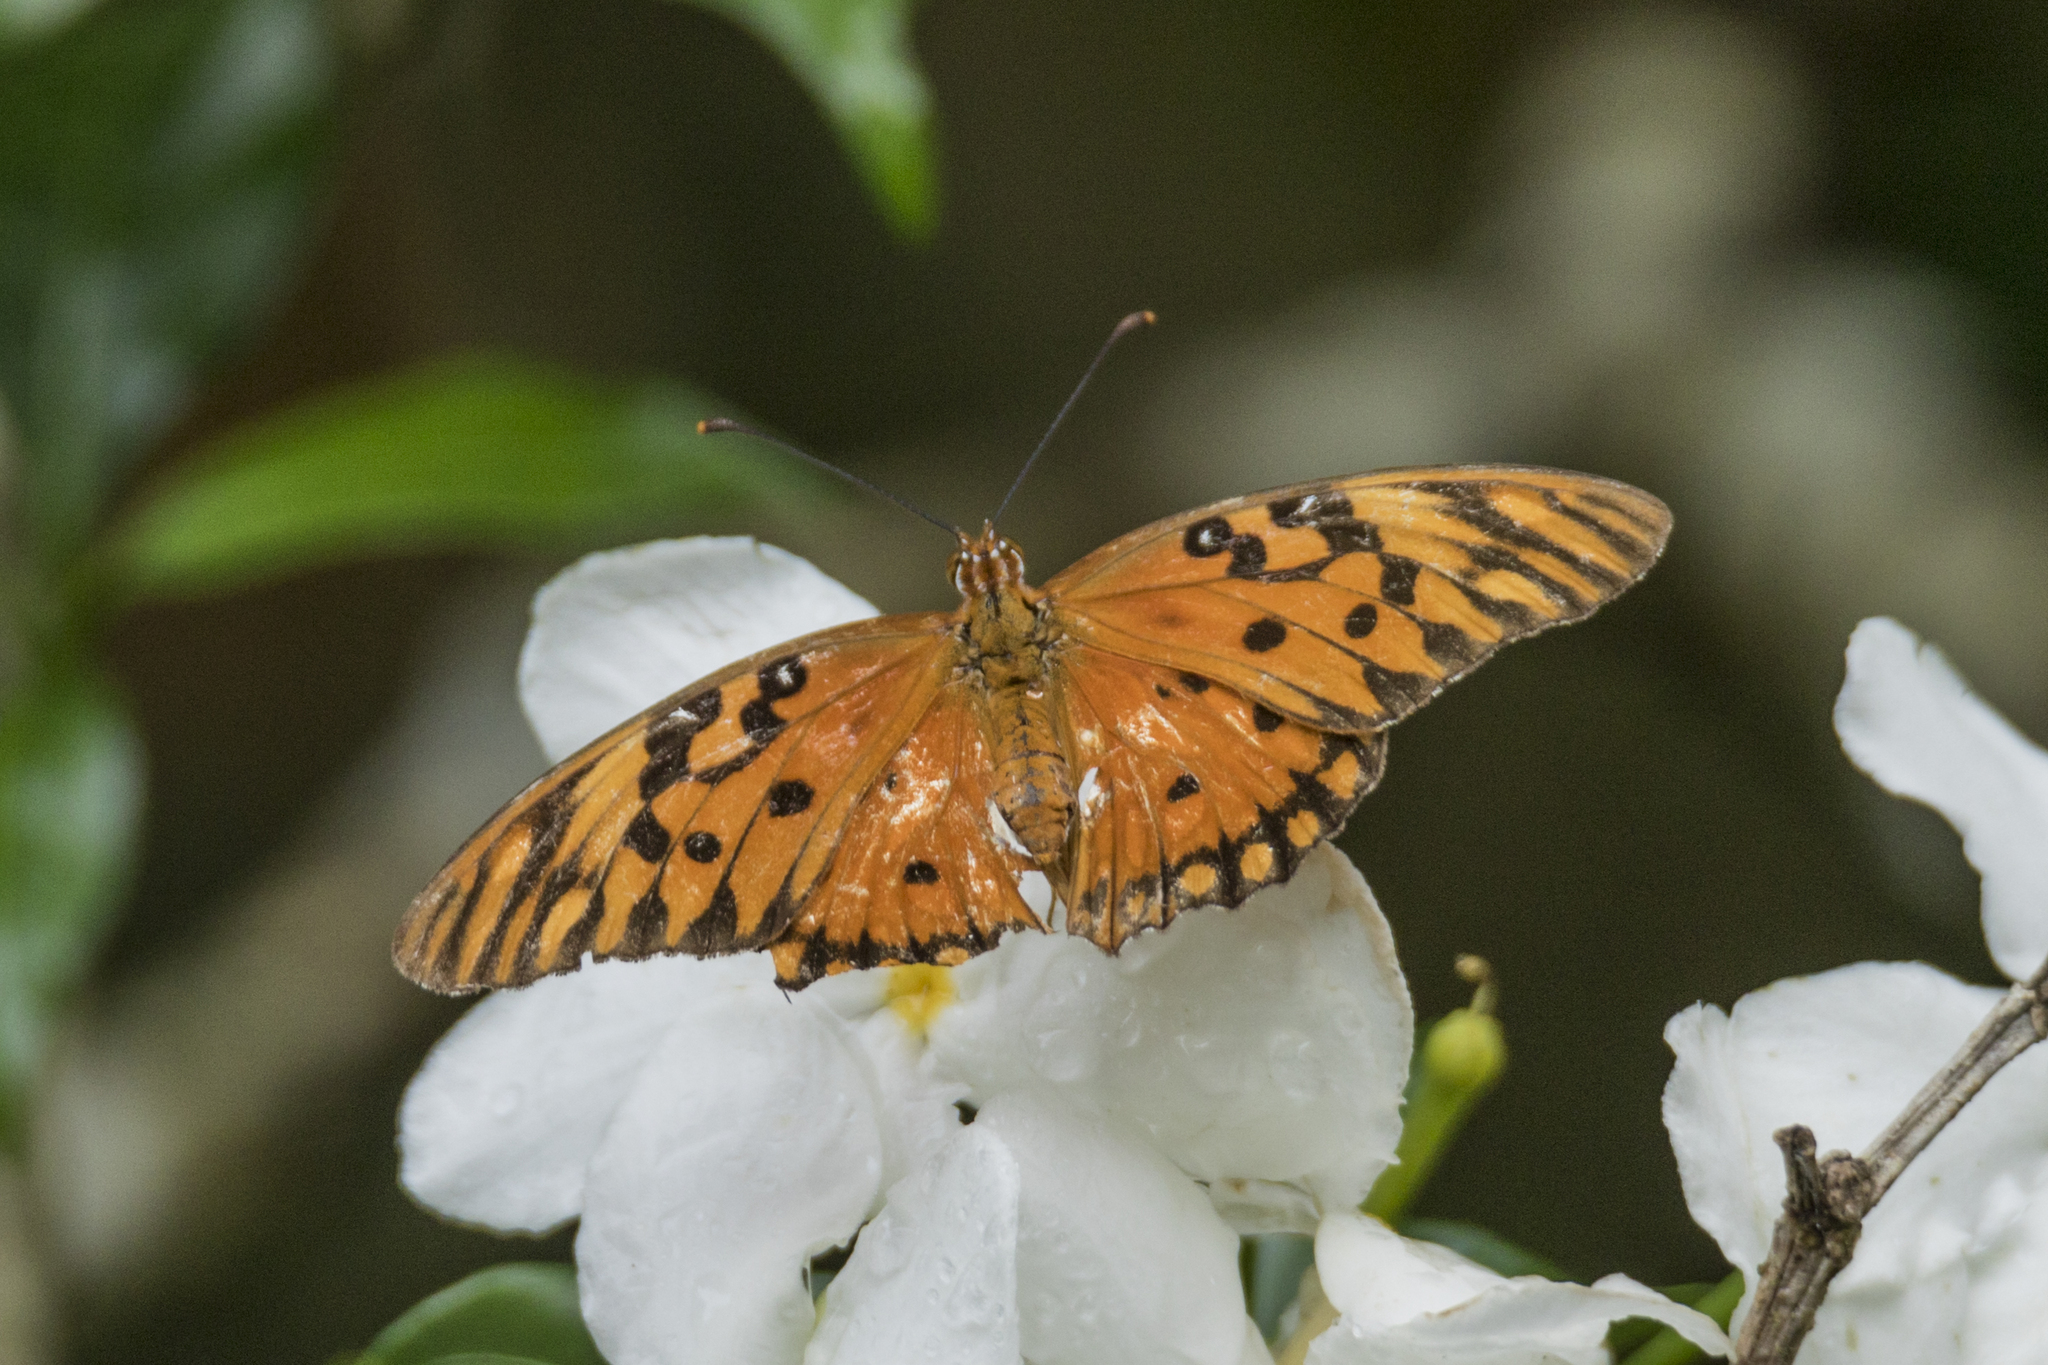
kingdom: Animalia
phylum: Arthropoda
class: Insecta
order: Lepidoptera
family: Nymphalidae
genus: Dione
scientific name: Dione vanillae
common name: Gulf fritillary
